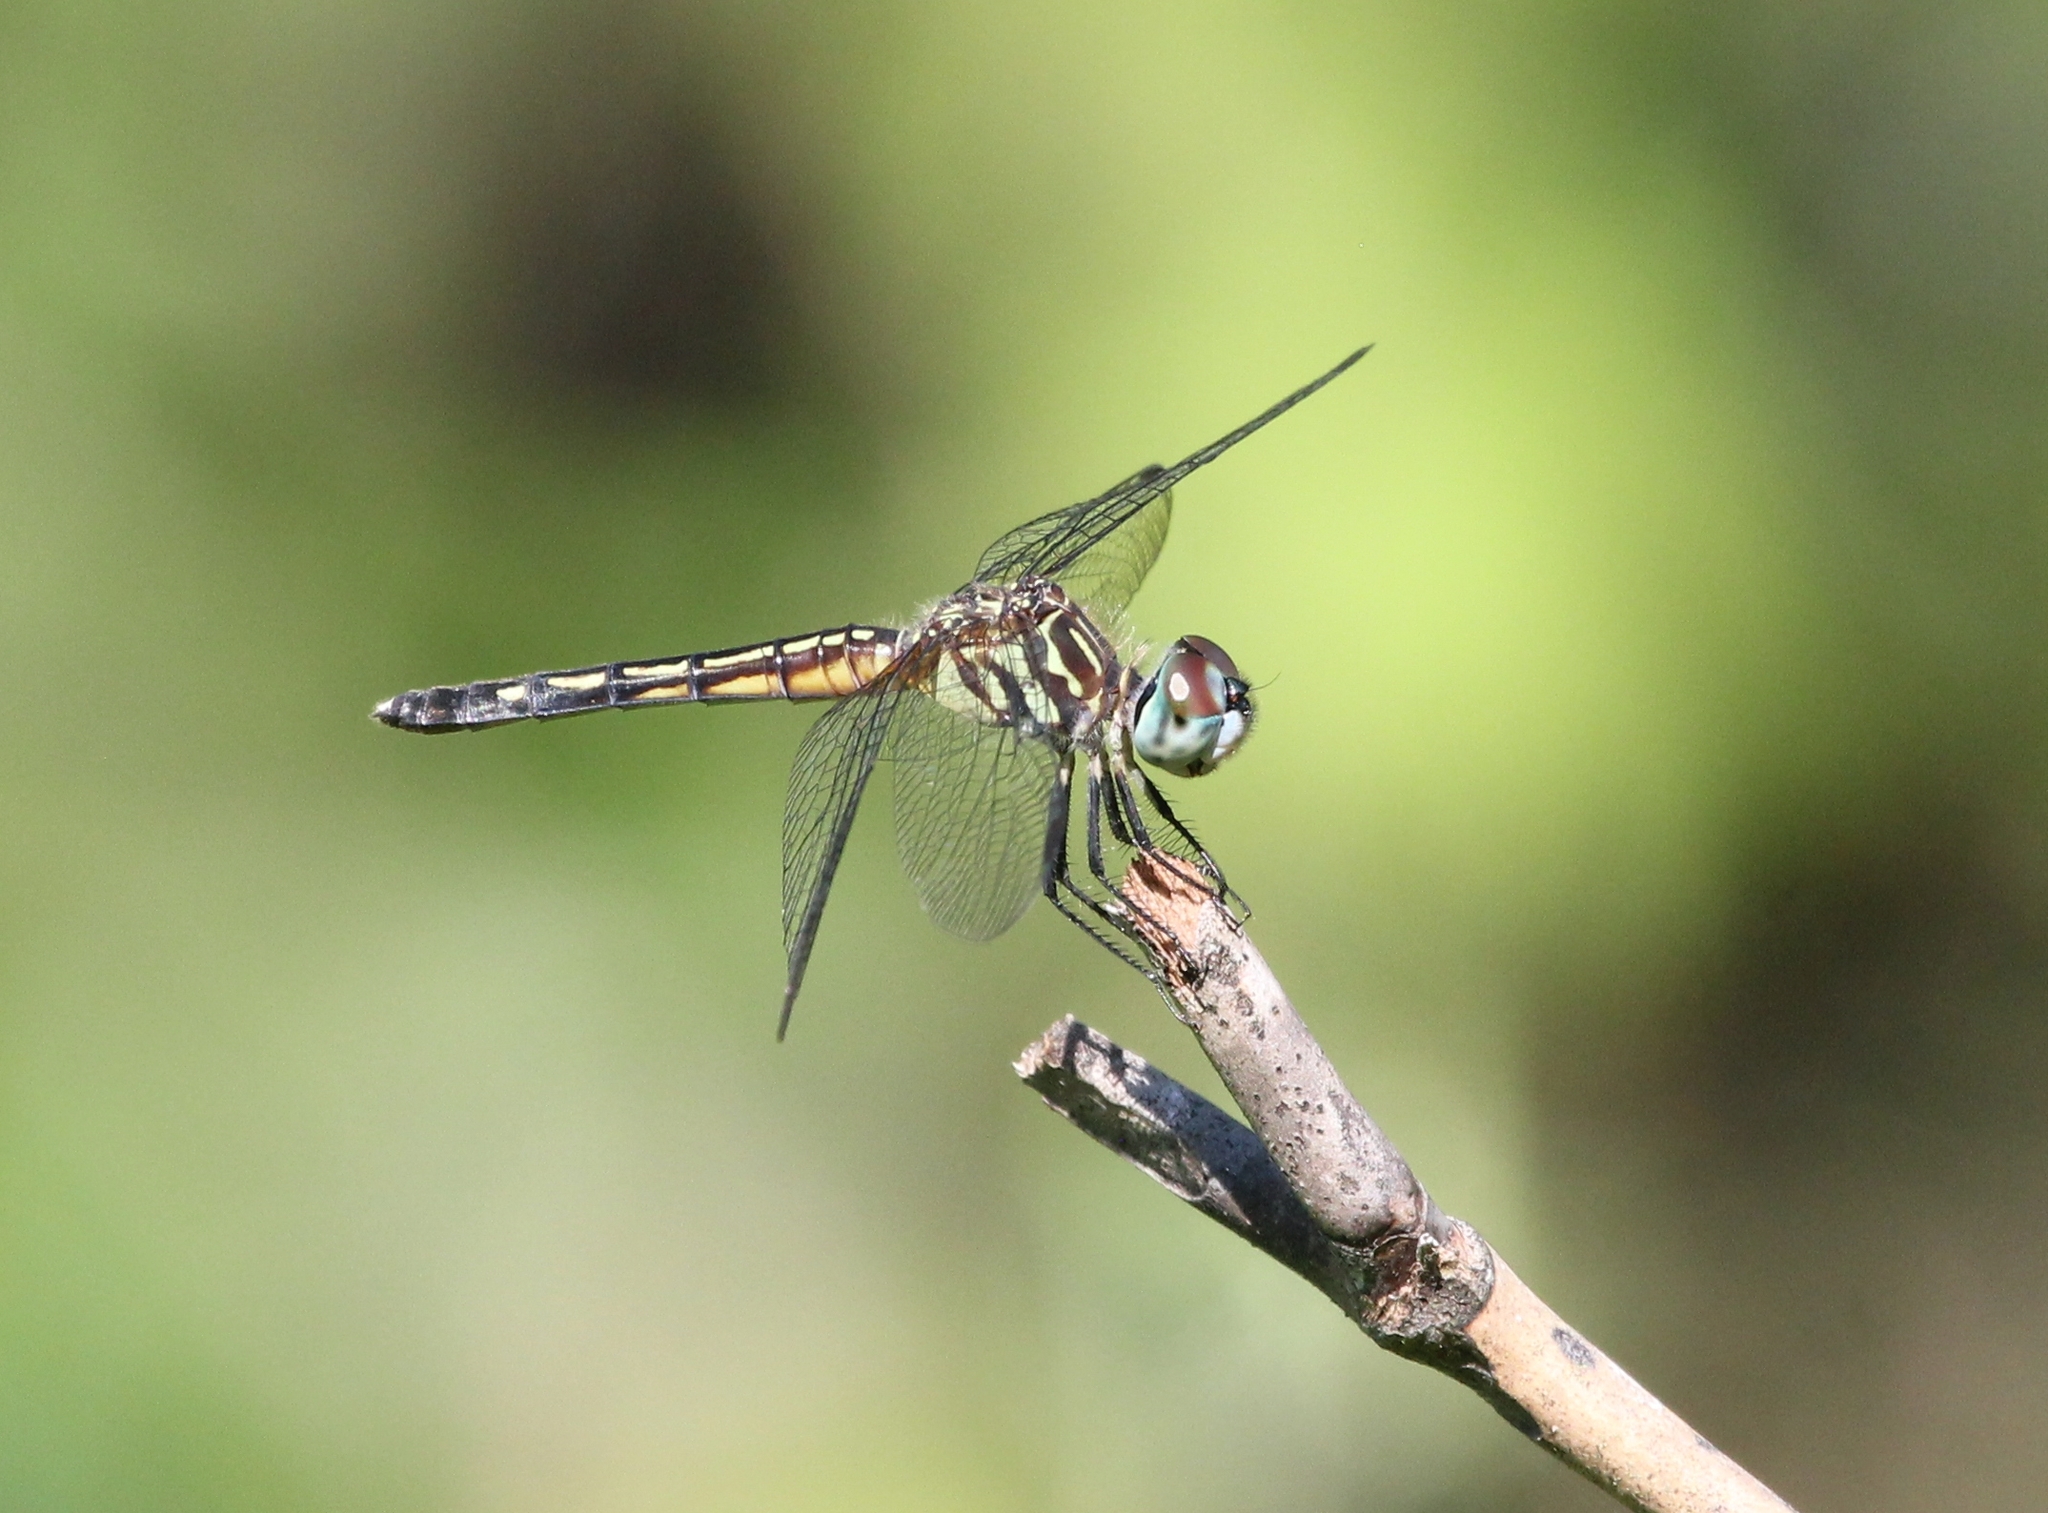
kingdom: Animalia
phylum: Arthropoda
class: Insecta
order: Odonata
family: Libellulidae
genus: Pachydiplax
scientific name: Pachydiplax longipennis
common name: Blue dasher
